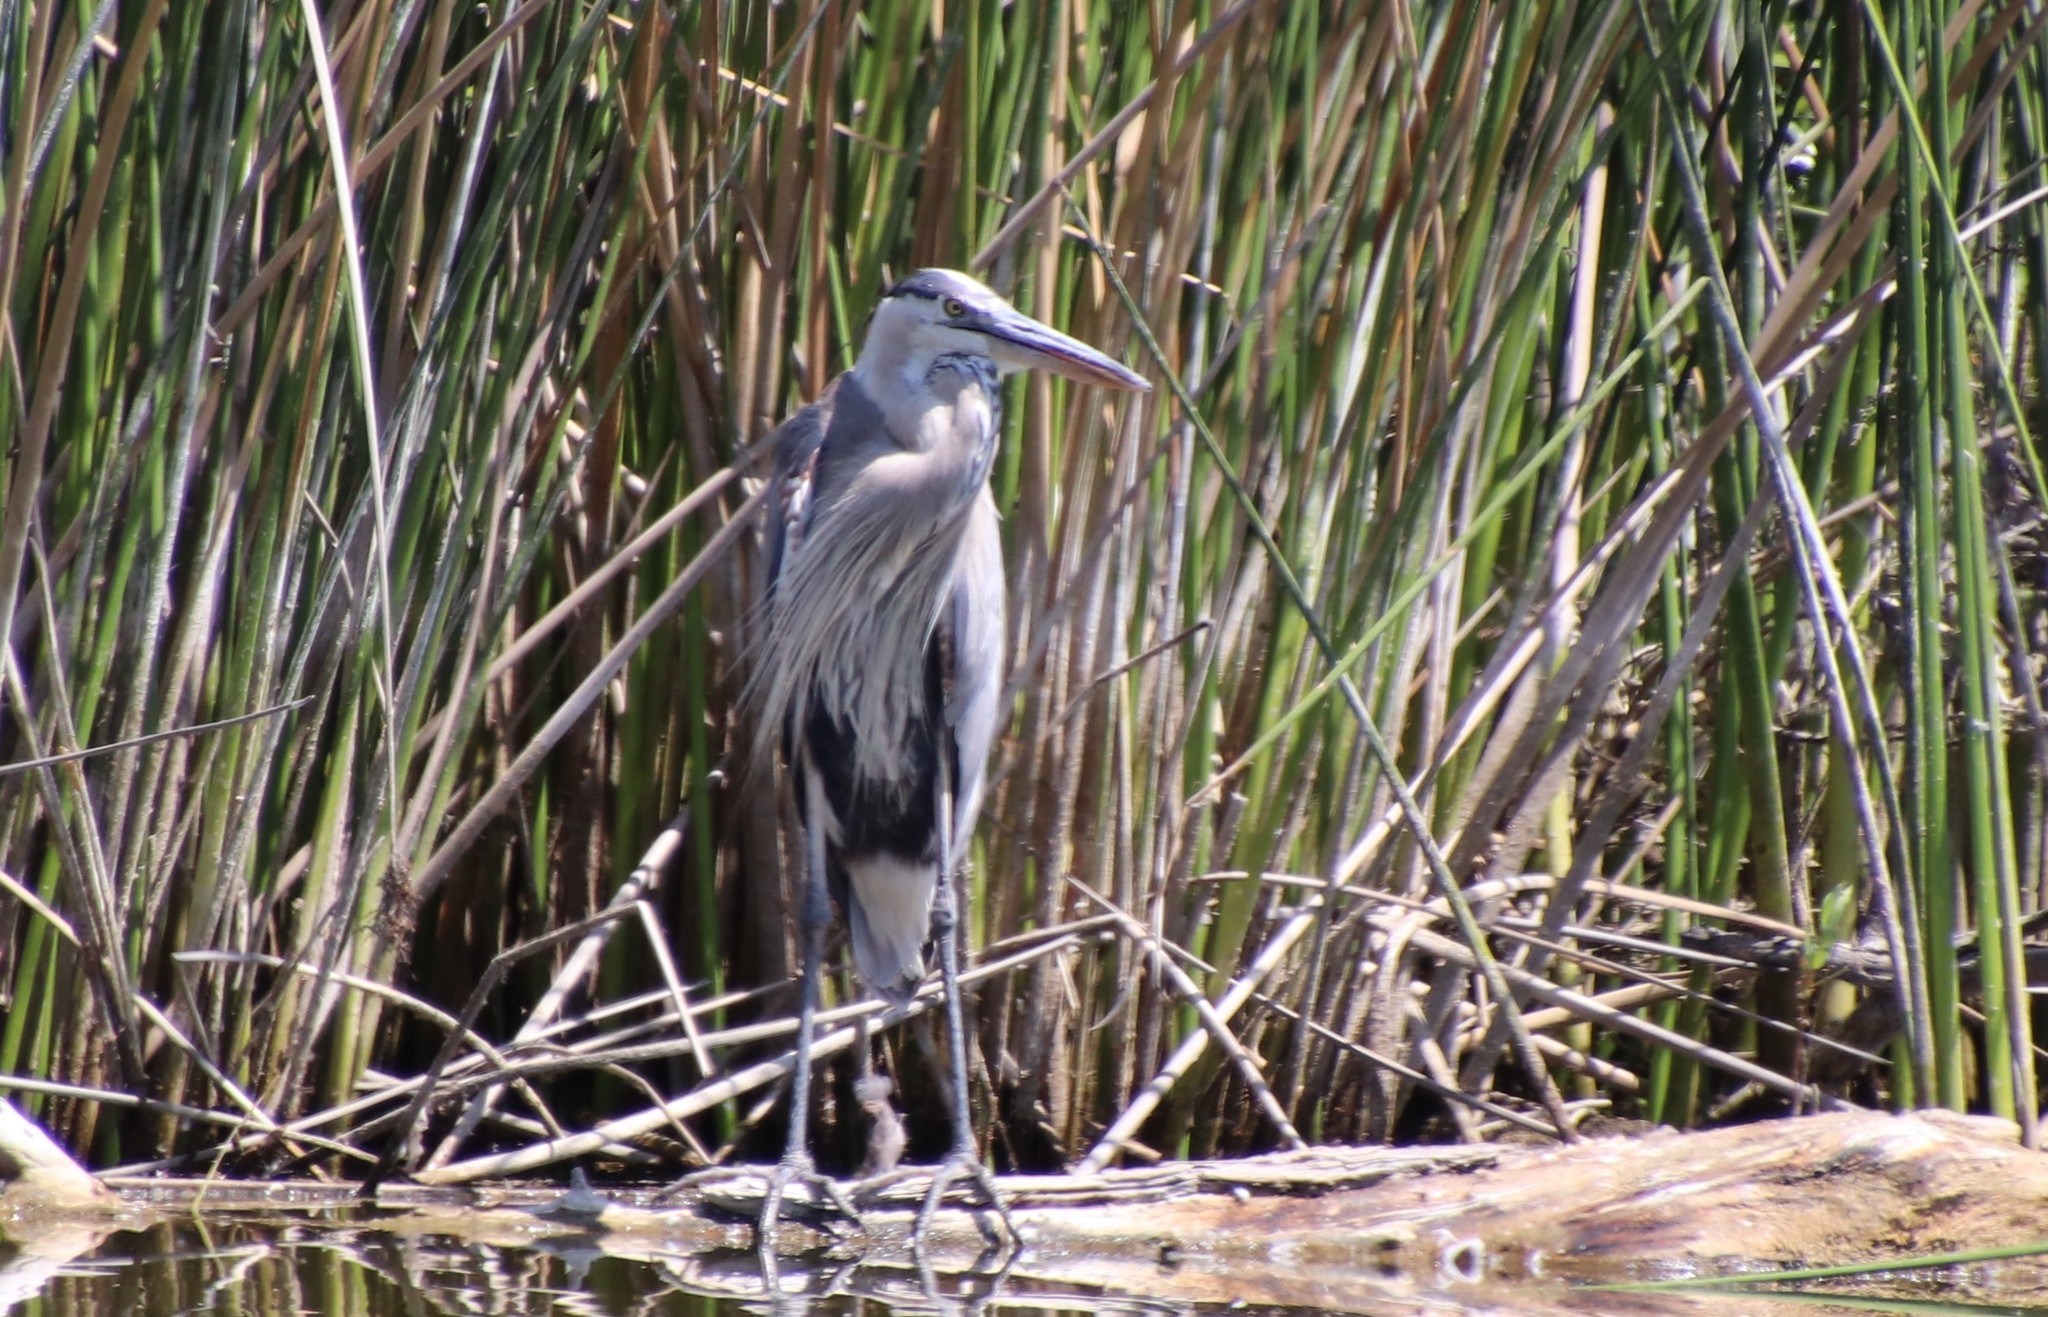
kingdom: Animalia
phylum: Chordata
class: Aves
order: Pelecaniformes
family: Ardeidae
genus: Ardea
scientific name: Ardea herodias
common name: Great blue heron
